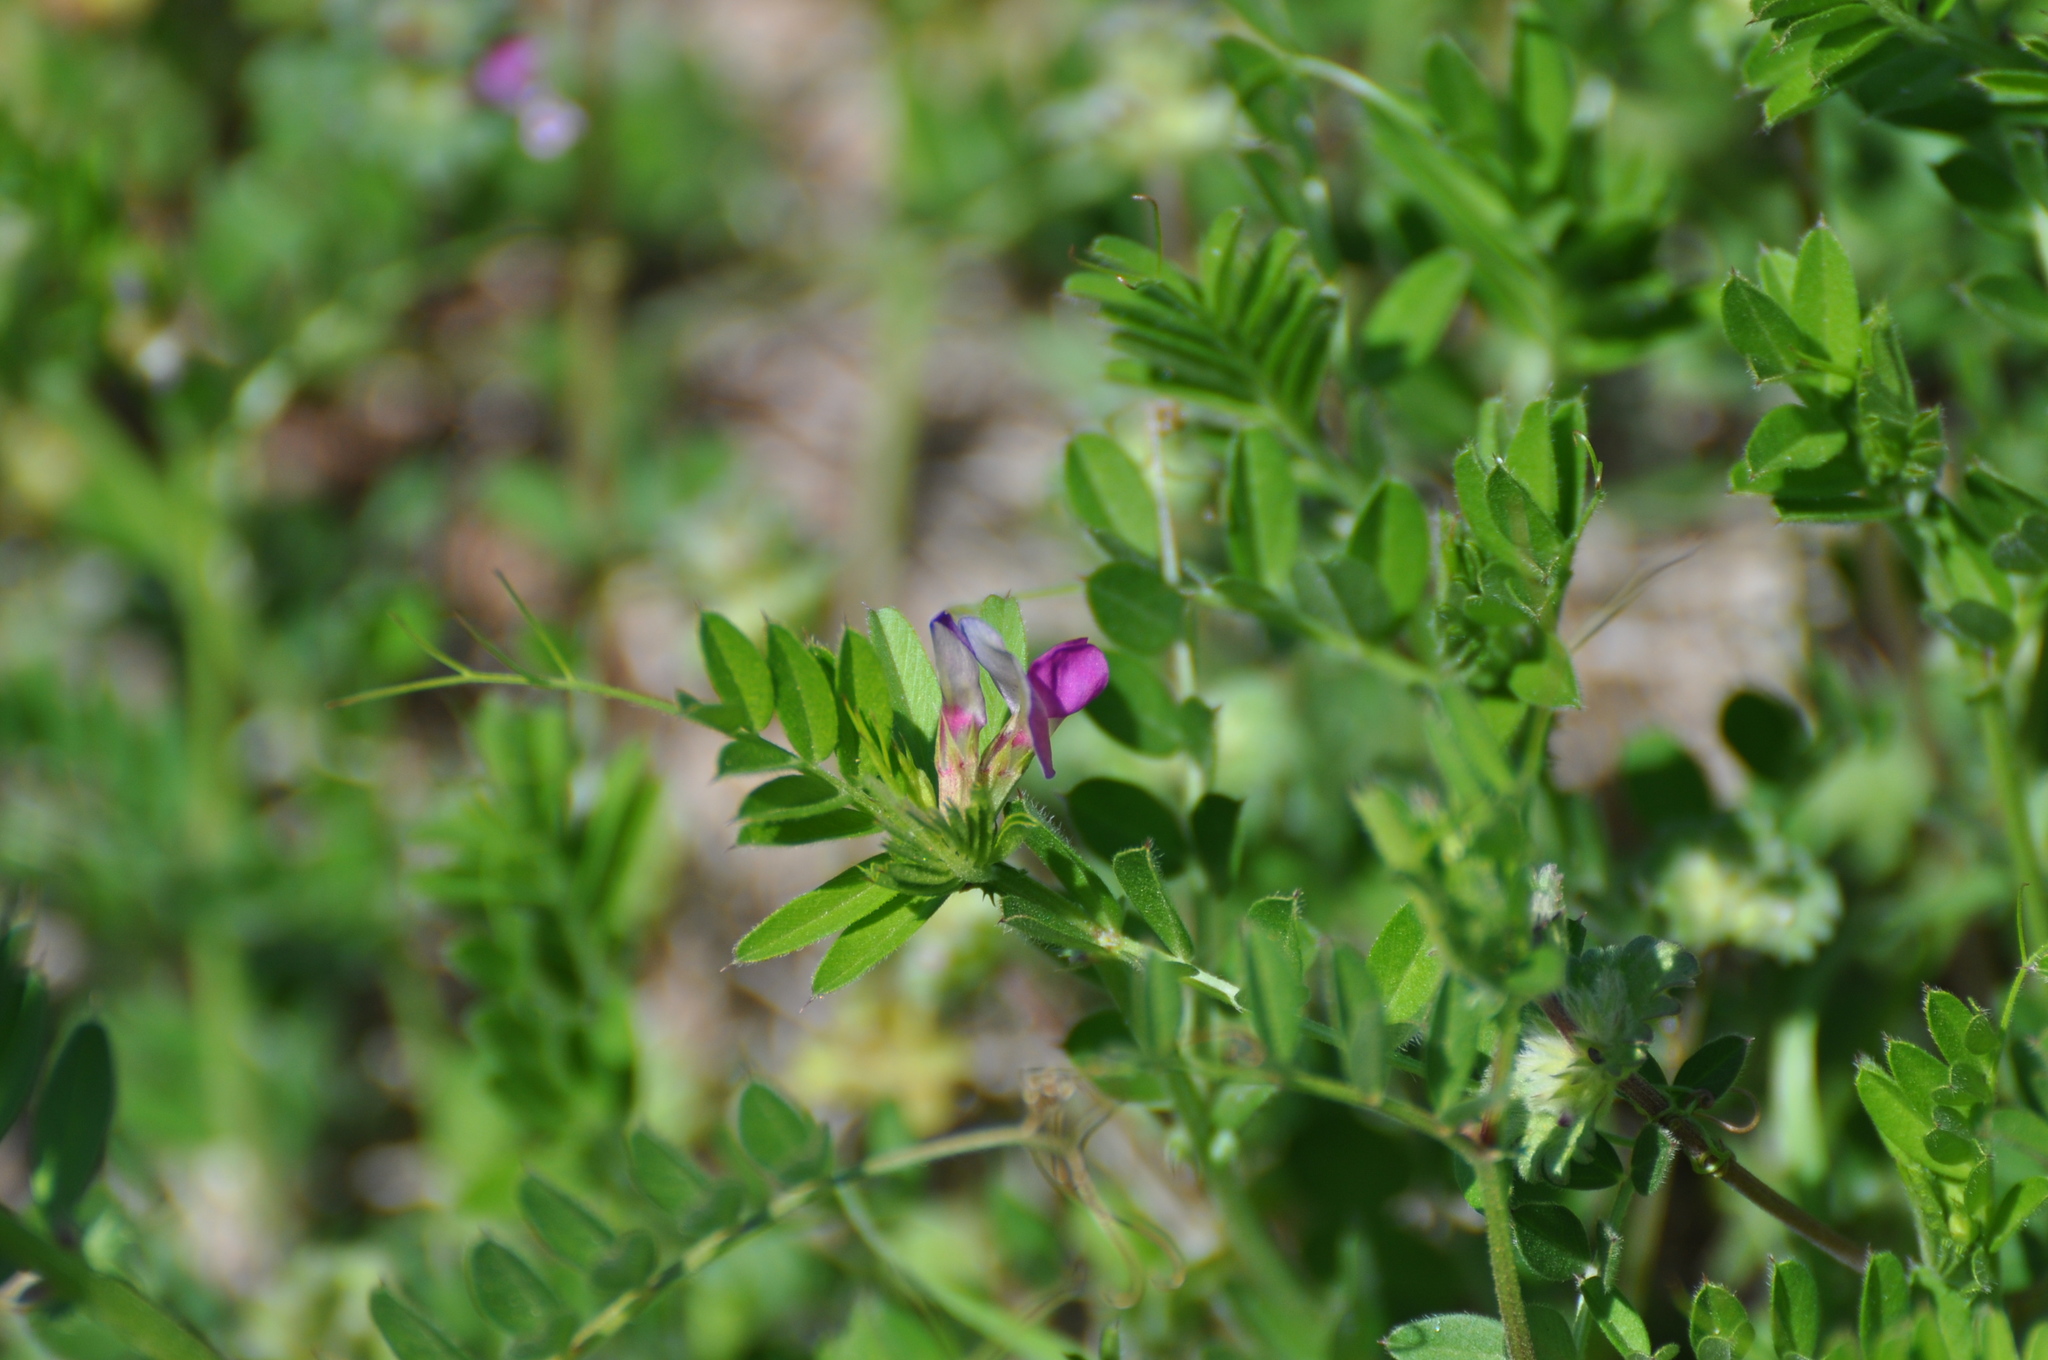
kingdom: Plantae
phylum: Tracheophyta
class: Magnoliopsida
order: Fabales
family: Fabaceae
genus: Vicia
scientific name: Vicia sativa
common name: Garden vetch
